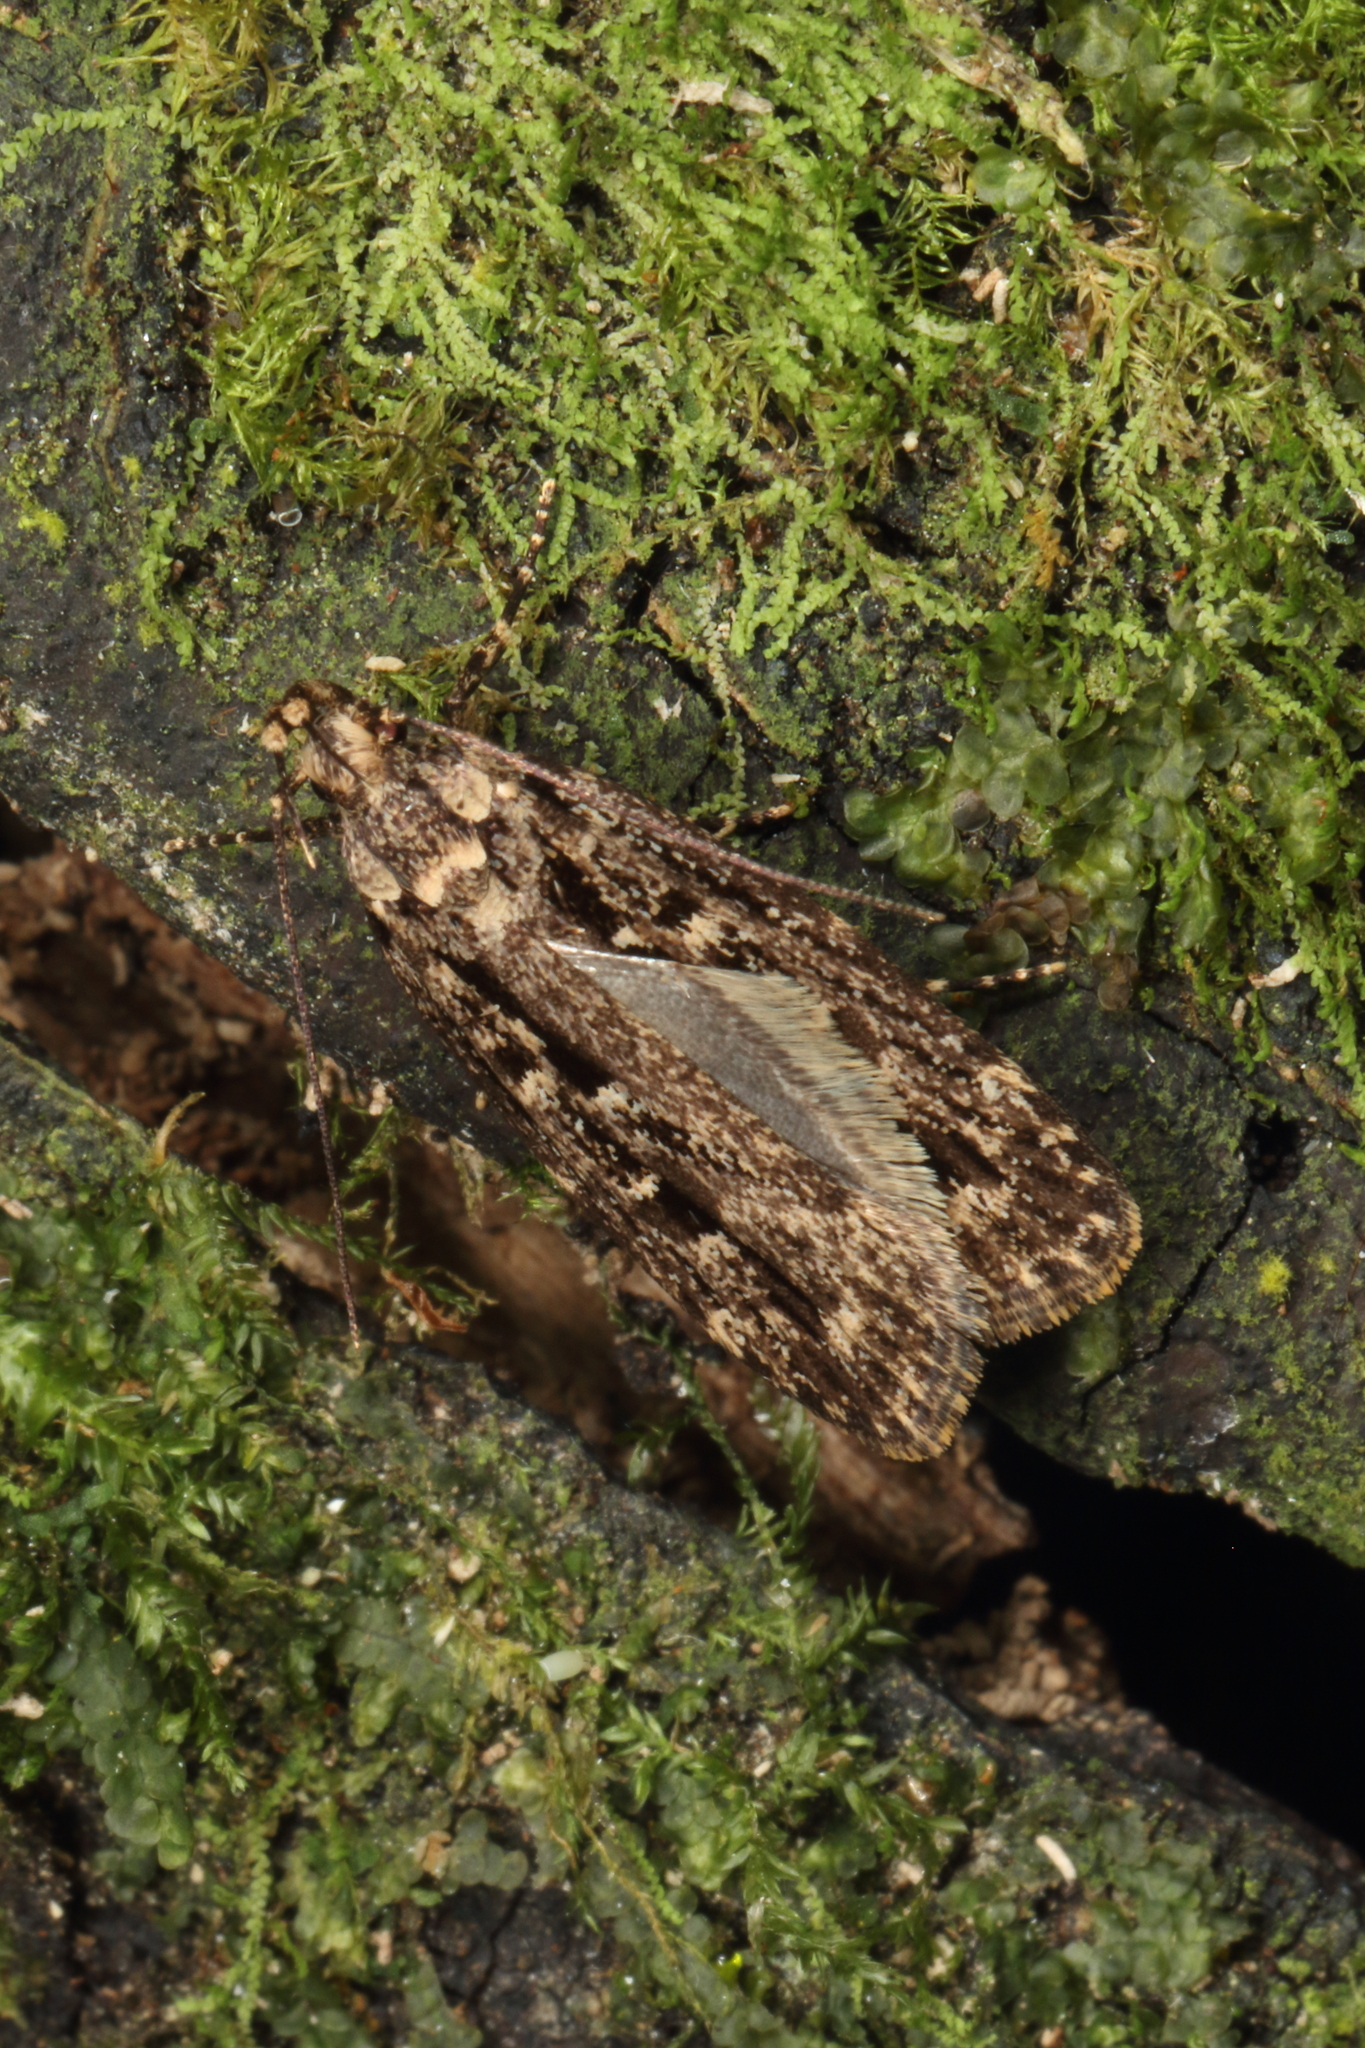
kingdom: Animalia
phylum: Arthropoda
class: Insecta
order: Lepidoptera
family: Oecophoridae
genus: Gymnobathra
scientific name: Gymnobathra dinocosma
